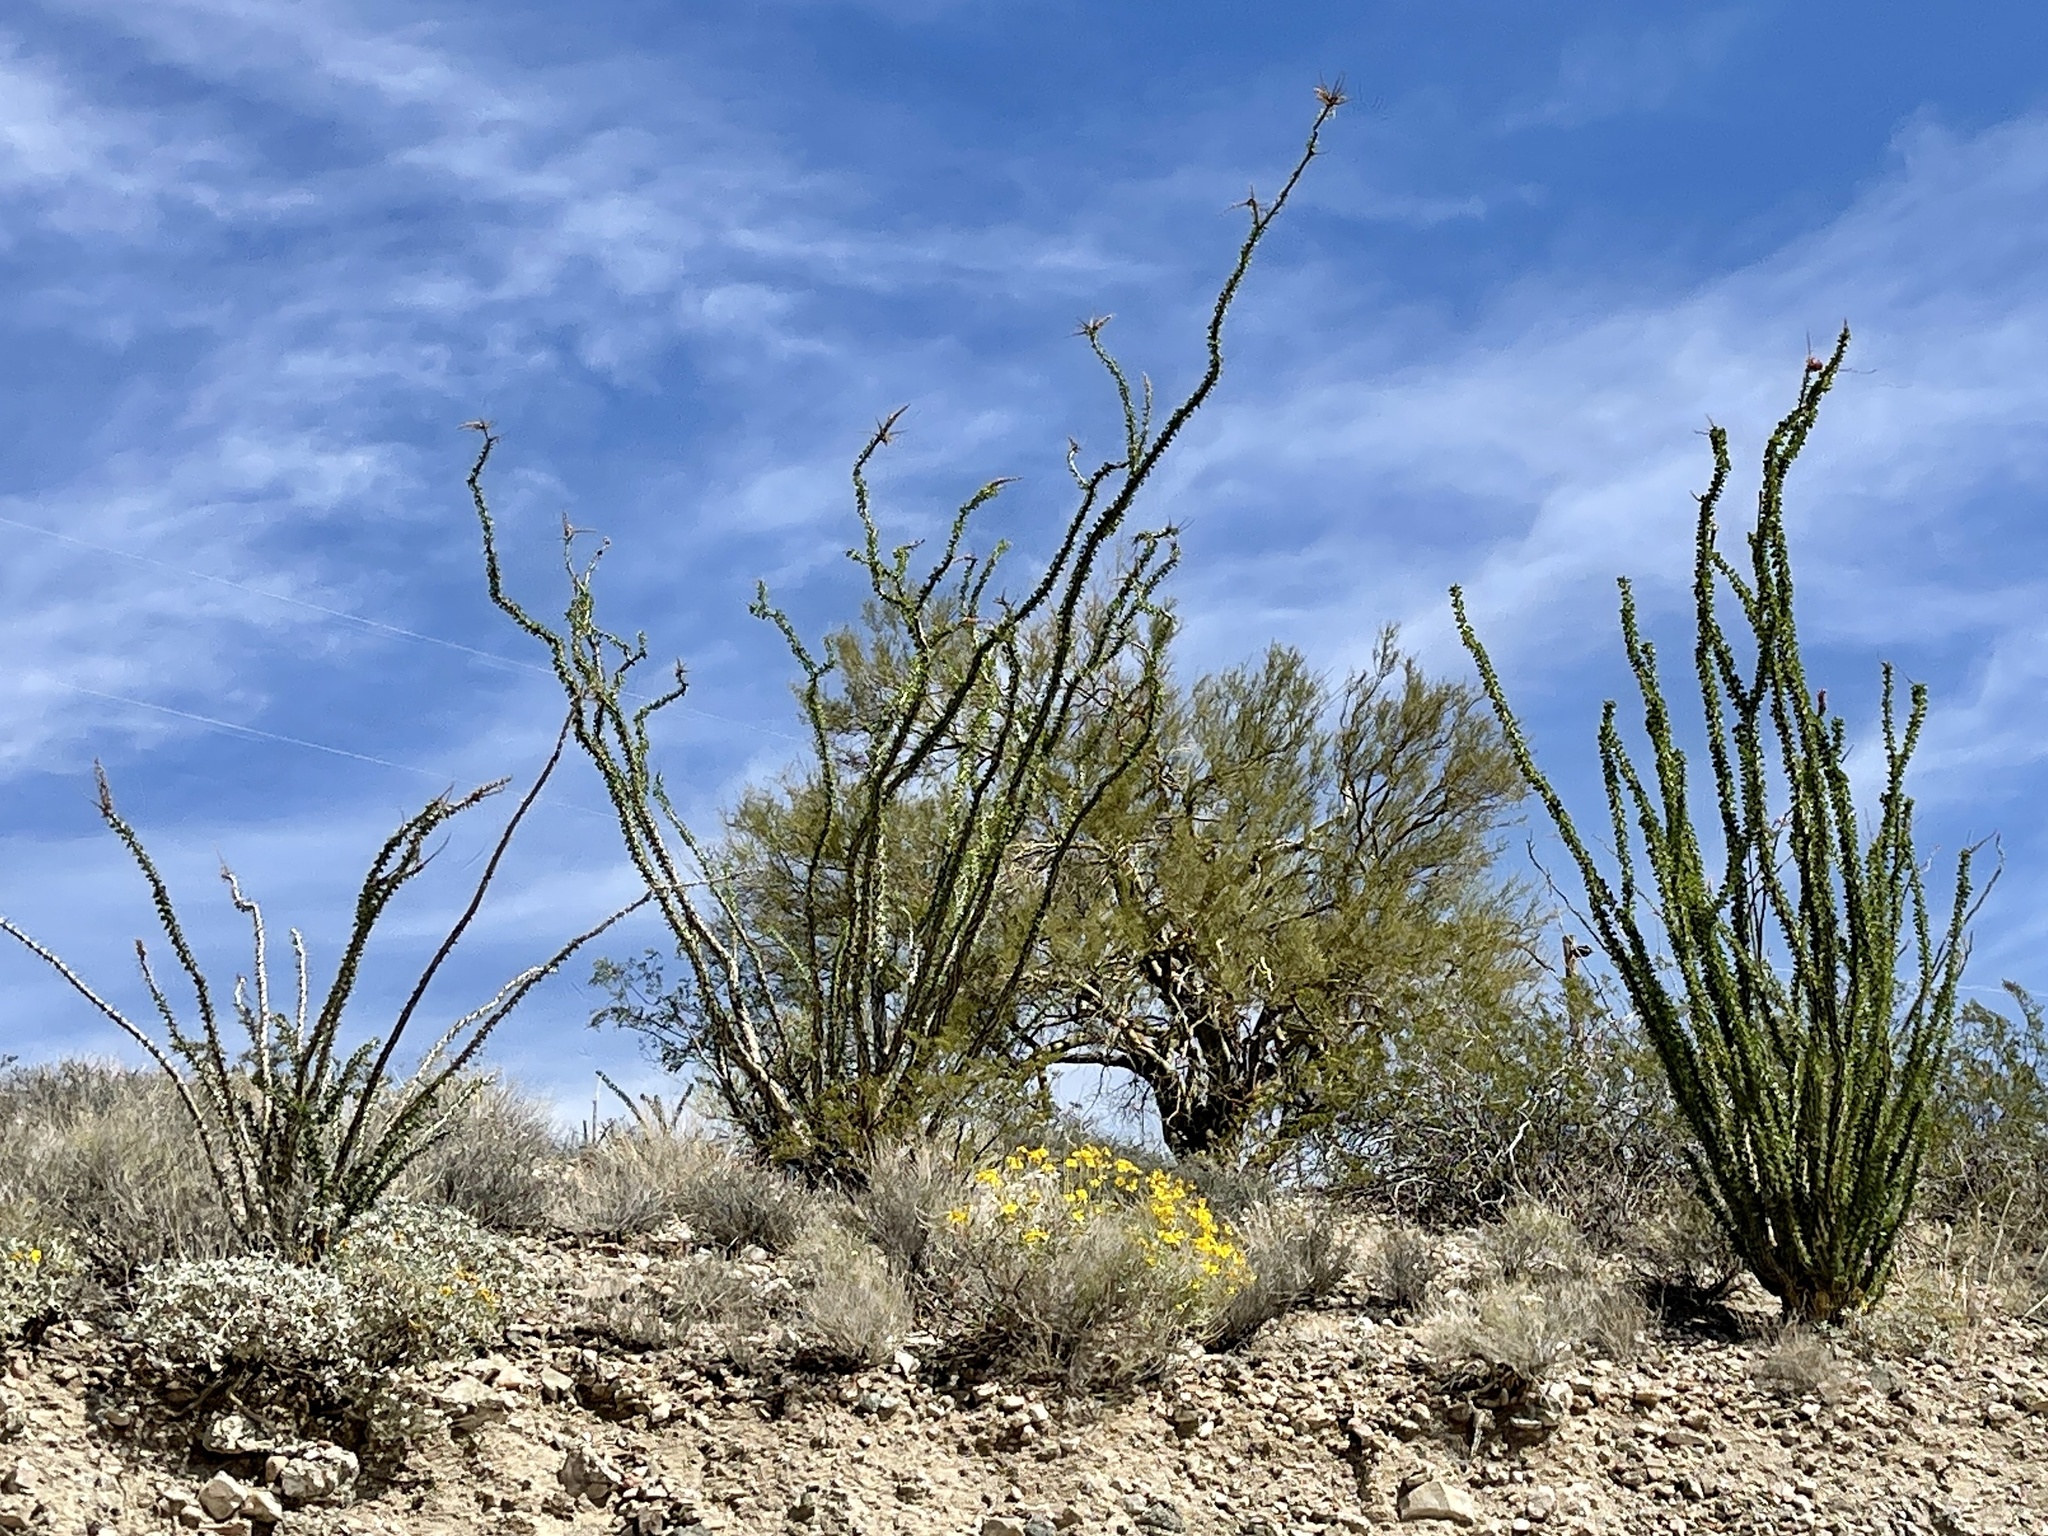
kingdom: Plantae
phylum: Tracheophyta
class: Magnoliopsida
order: Ericales
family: Fouquieriaceae
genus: Fouquieria
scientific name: Fouquieria splendens
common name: Vine-cactus
